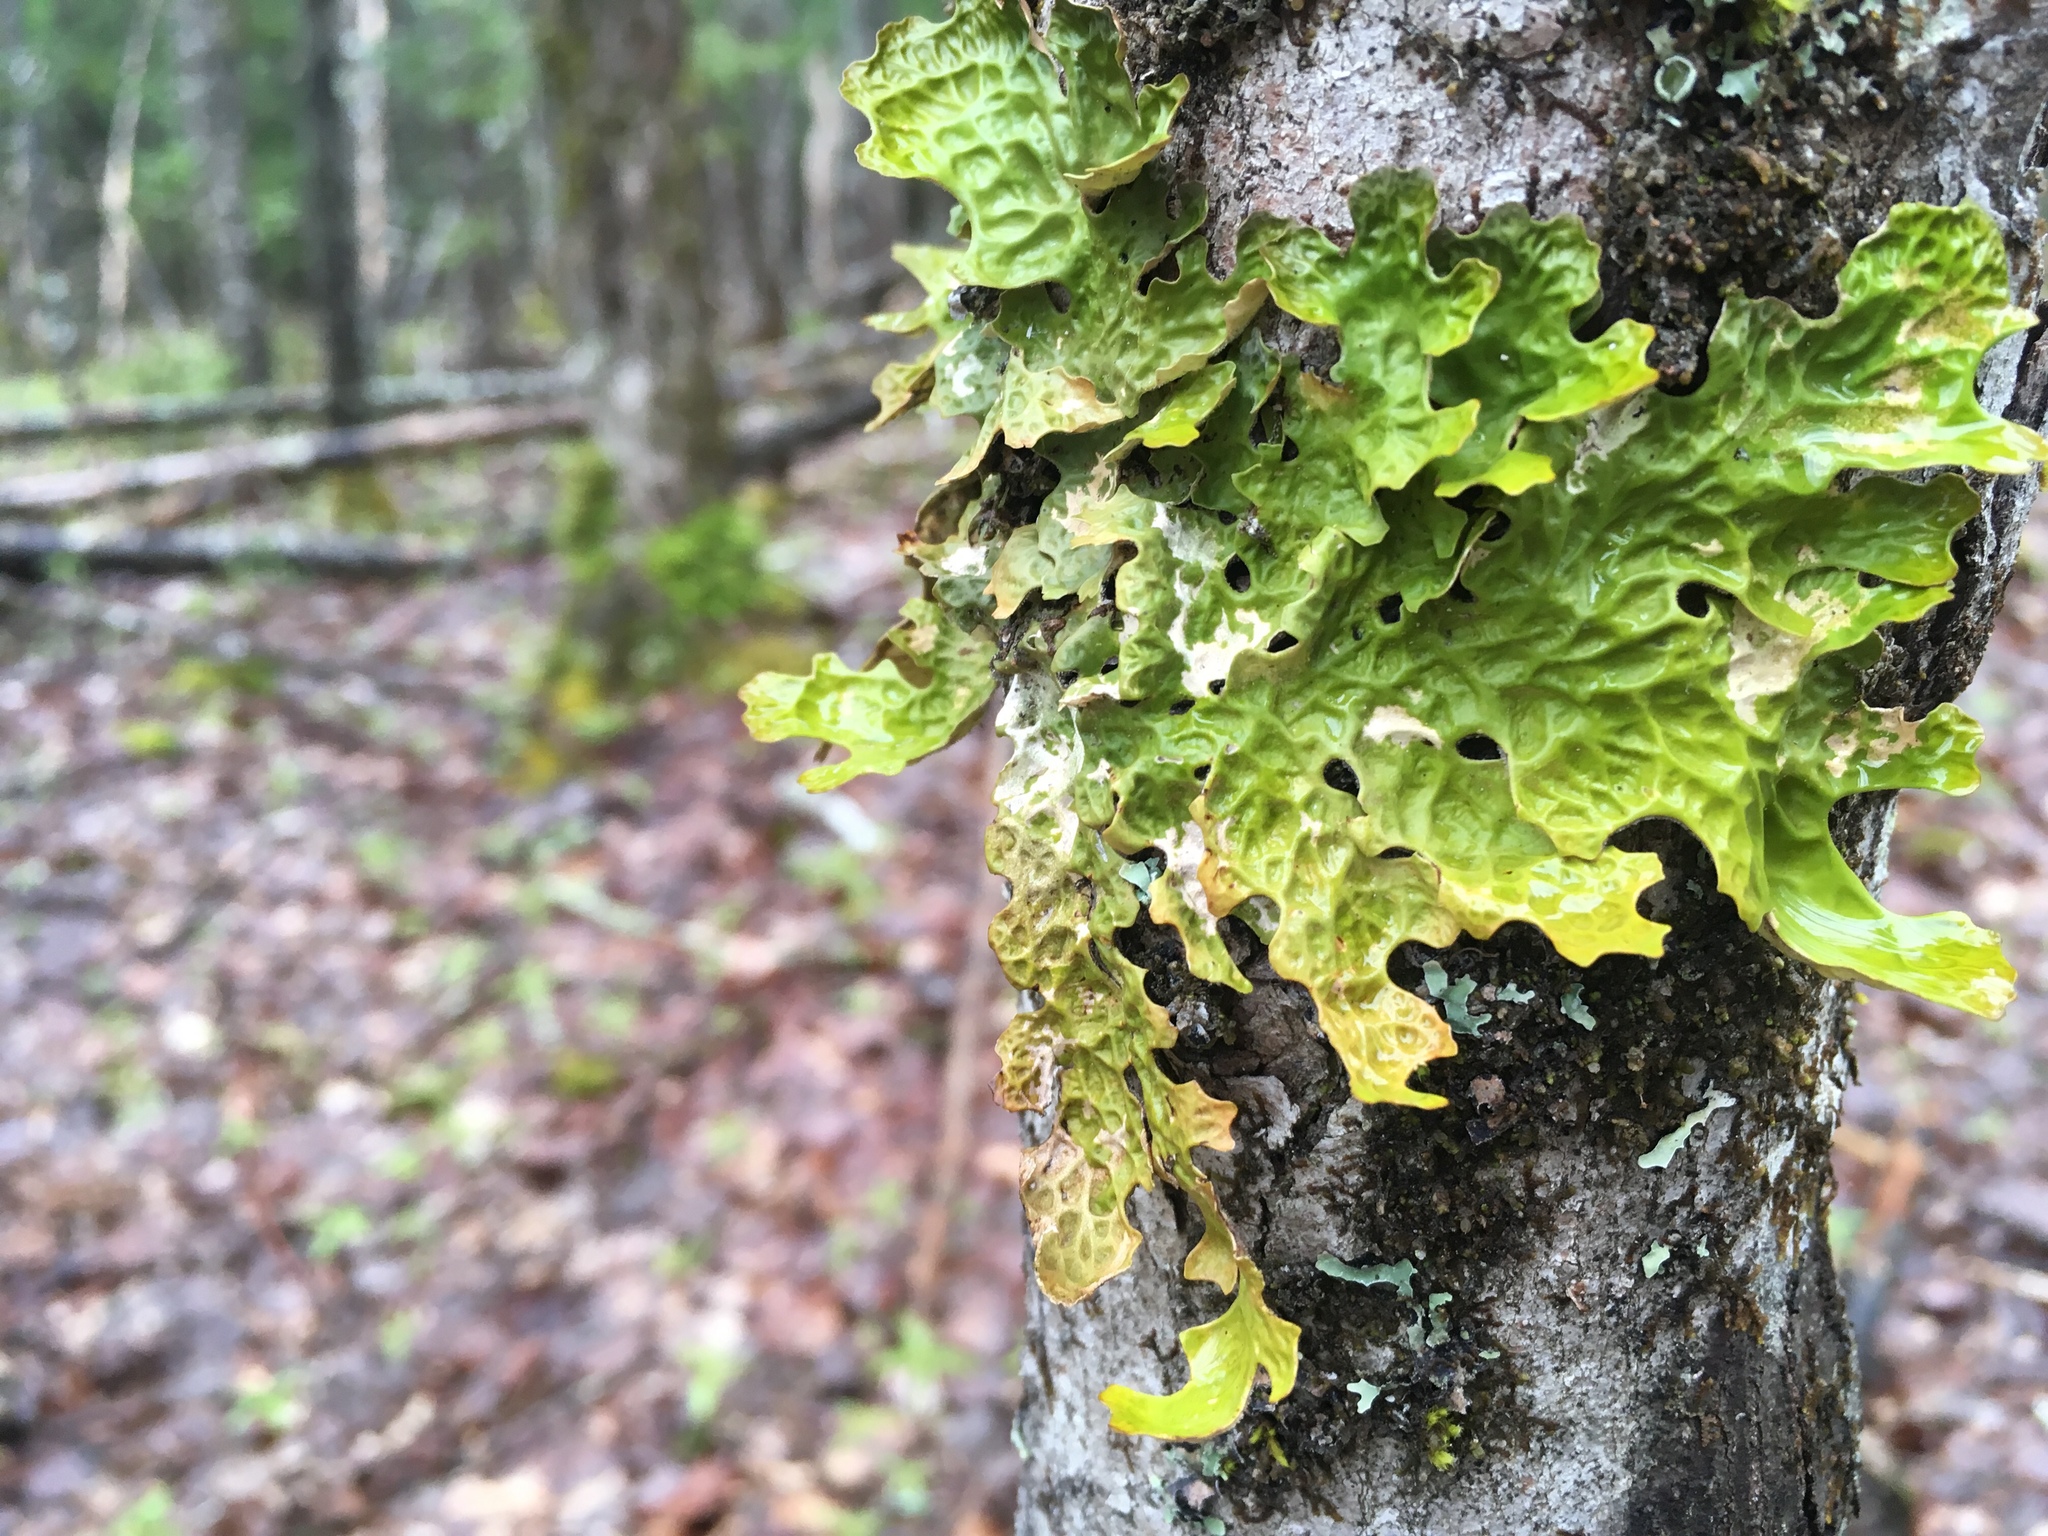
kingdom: Fungi
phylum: Ascomycota
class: Lecanoromycetes
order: Peltigerales
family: Lobariaceae
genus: Lobaria
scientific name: Lobaria pulmonaria
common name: Lungwort
